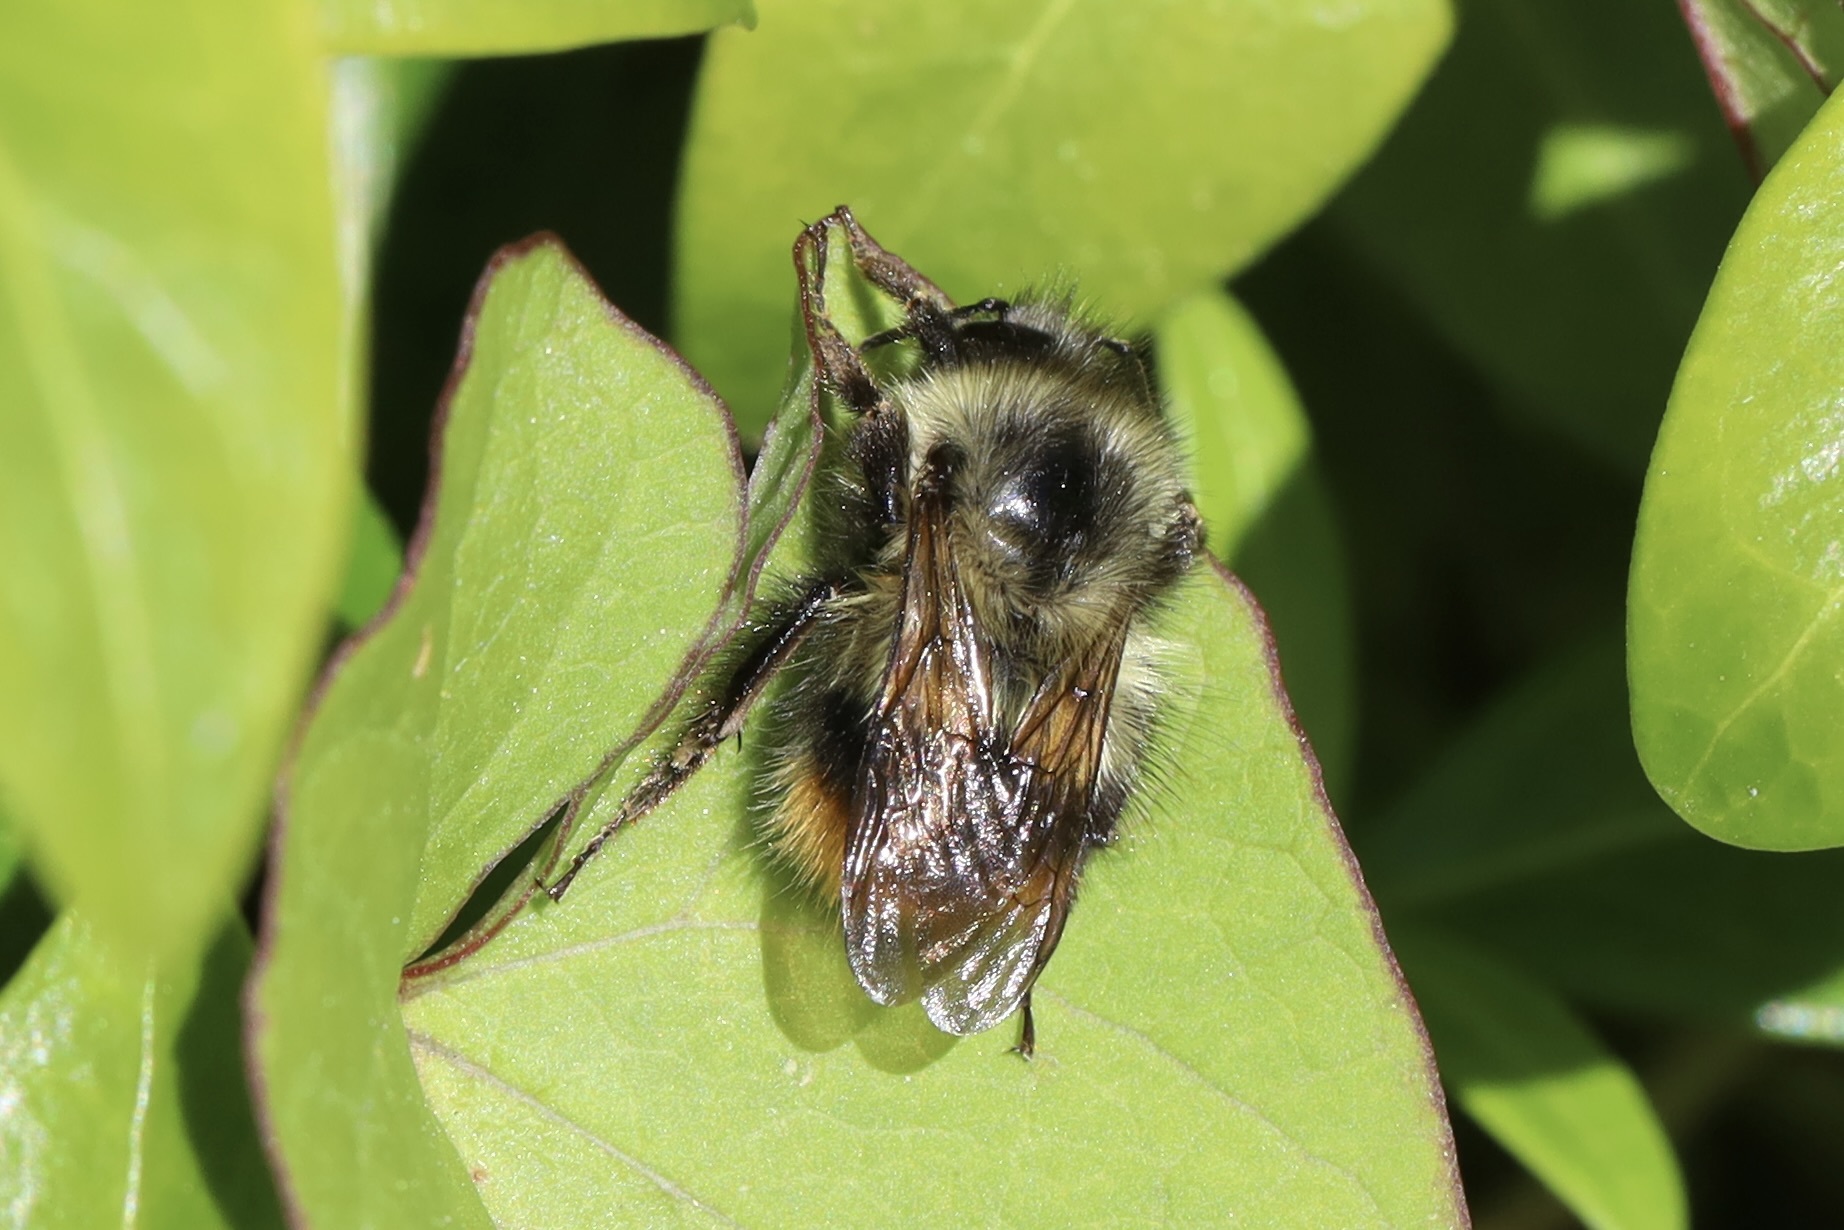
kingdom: Animalia
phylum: Arthropoda
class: Insecta
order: Hymenoptera
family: Apidae
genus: Bombus
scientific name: Bombus mixtus
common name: Fuzzy-horned bumble bee
